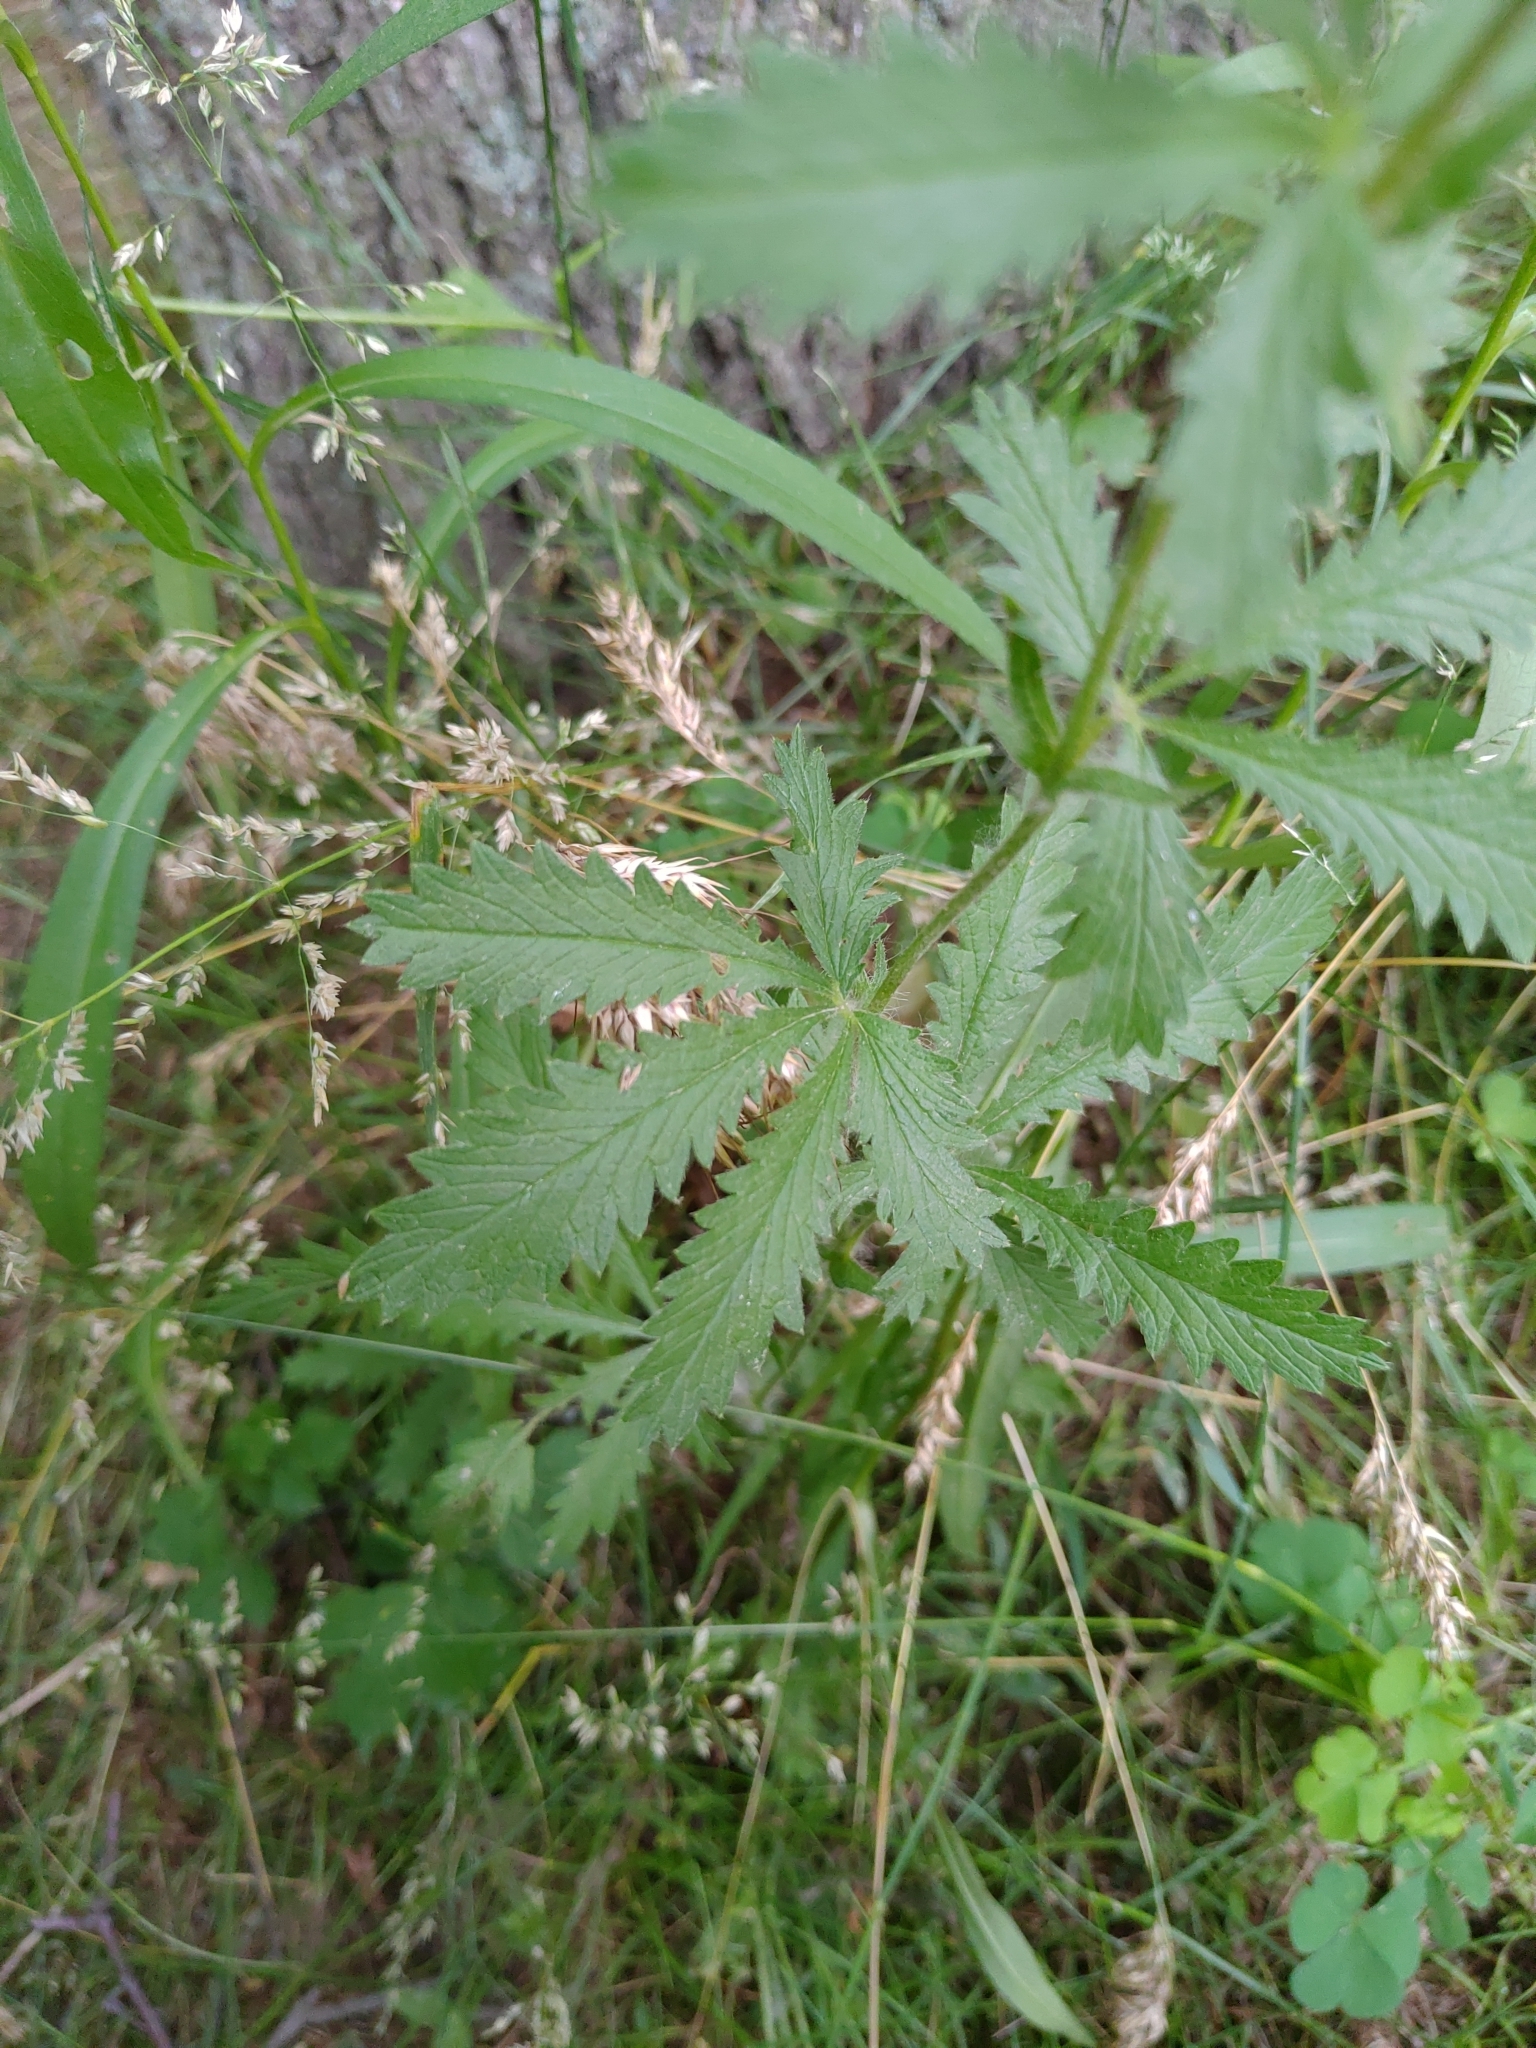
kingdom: Plantae
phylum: Tracheophyta
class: Magnoliopsida
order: Rosales
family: Rosaceae
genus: Potentilla
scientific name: Potentilla recta
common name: Sulphur cinquefoil
